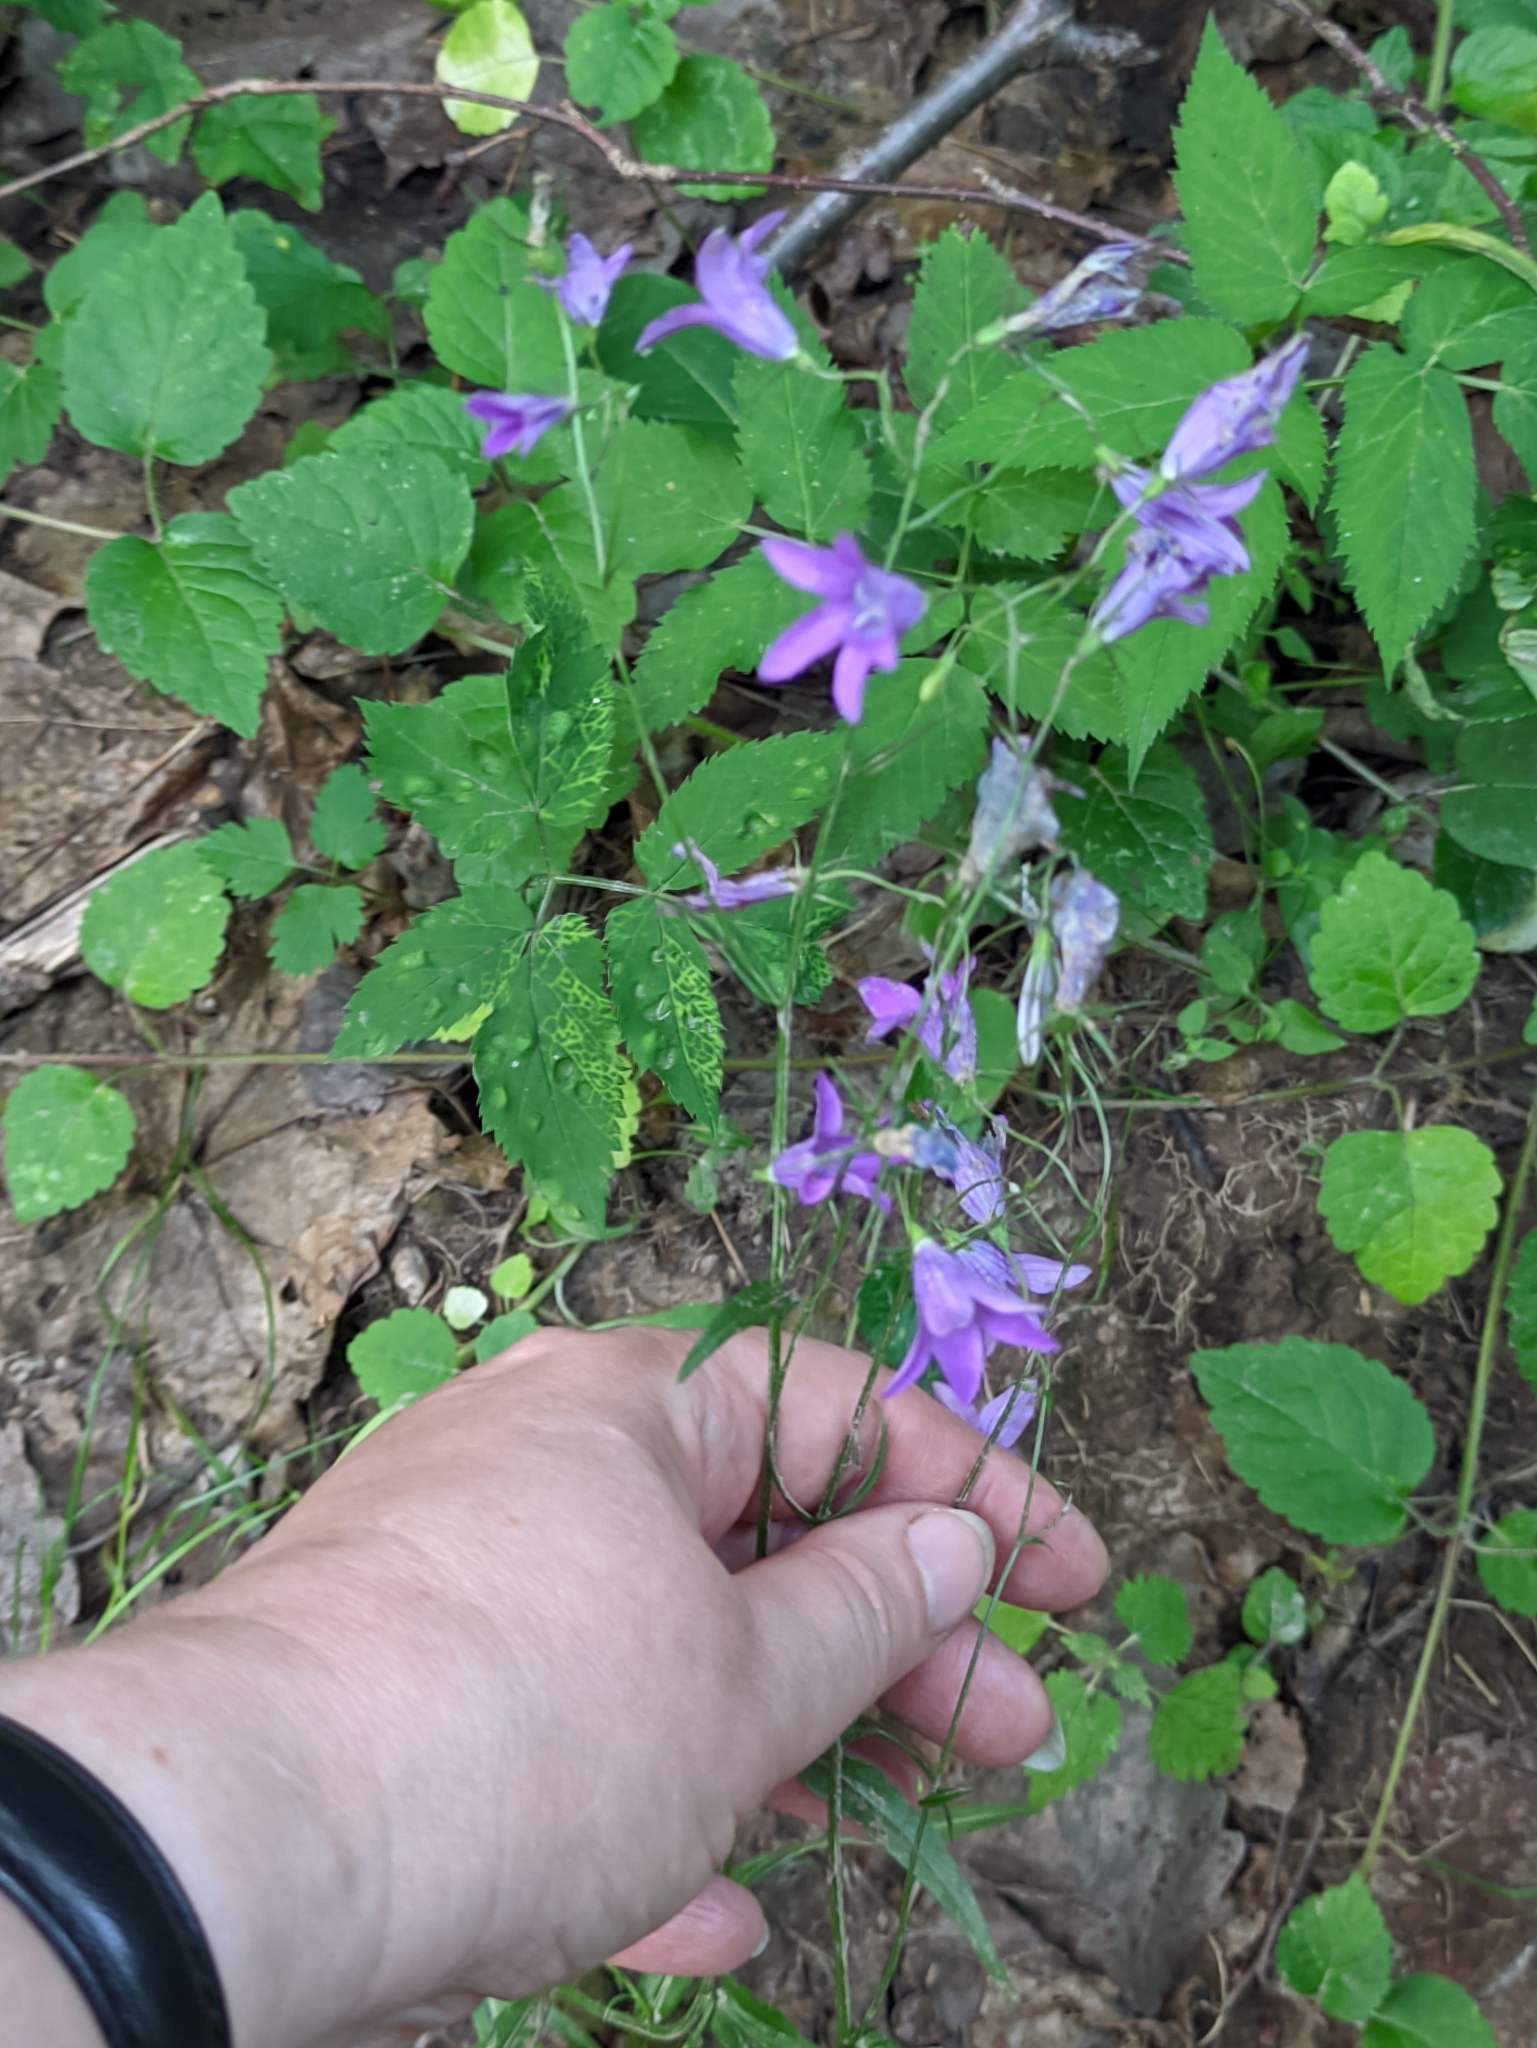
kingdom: Plantae
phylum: Tracheophyta
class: Magnoliopsida
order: Asterales
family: Campanulaceae
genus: Campanula
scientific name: Campanula patula
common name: Spreading bellflower
